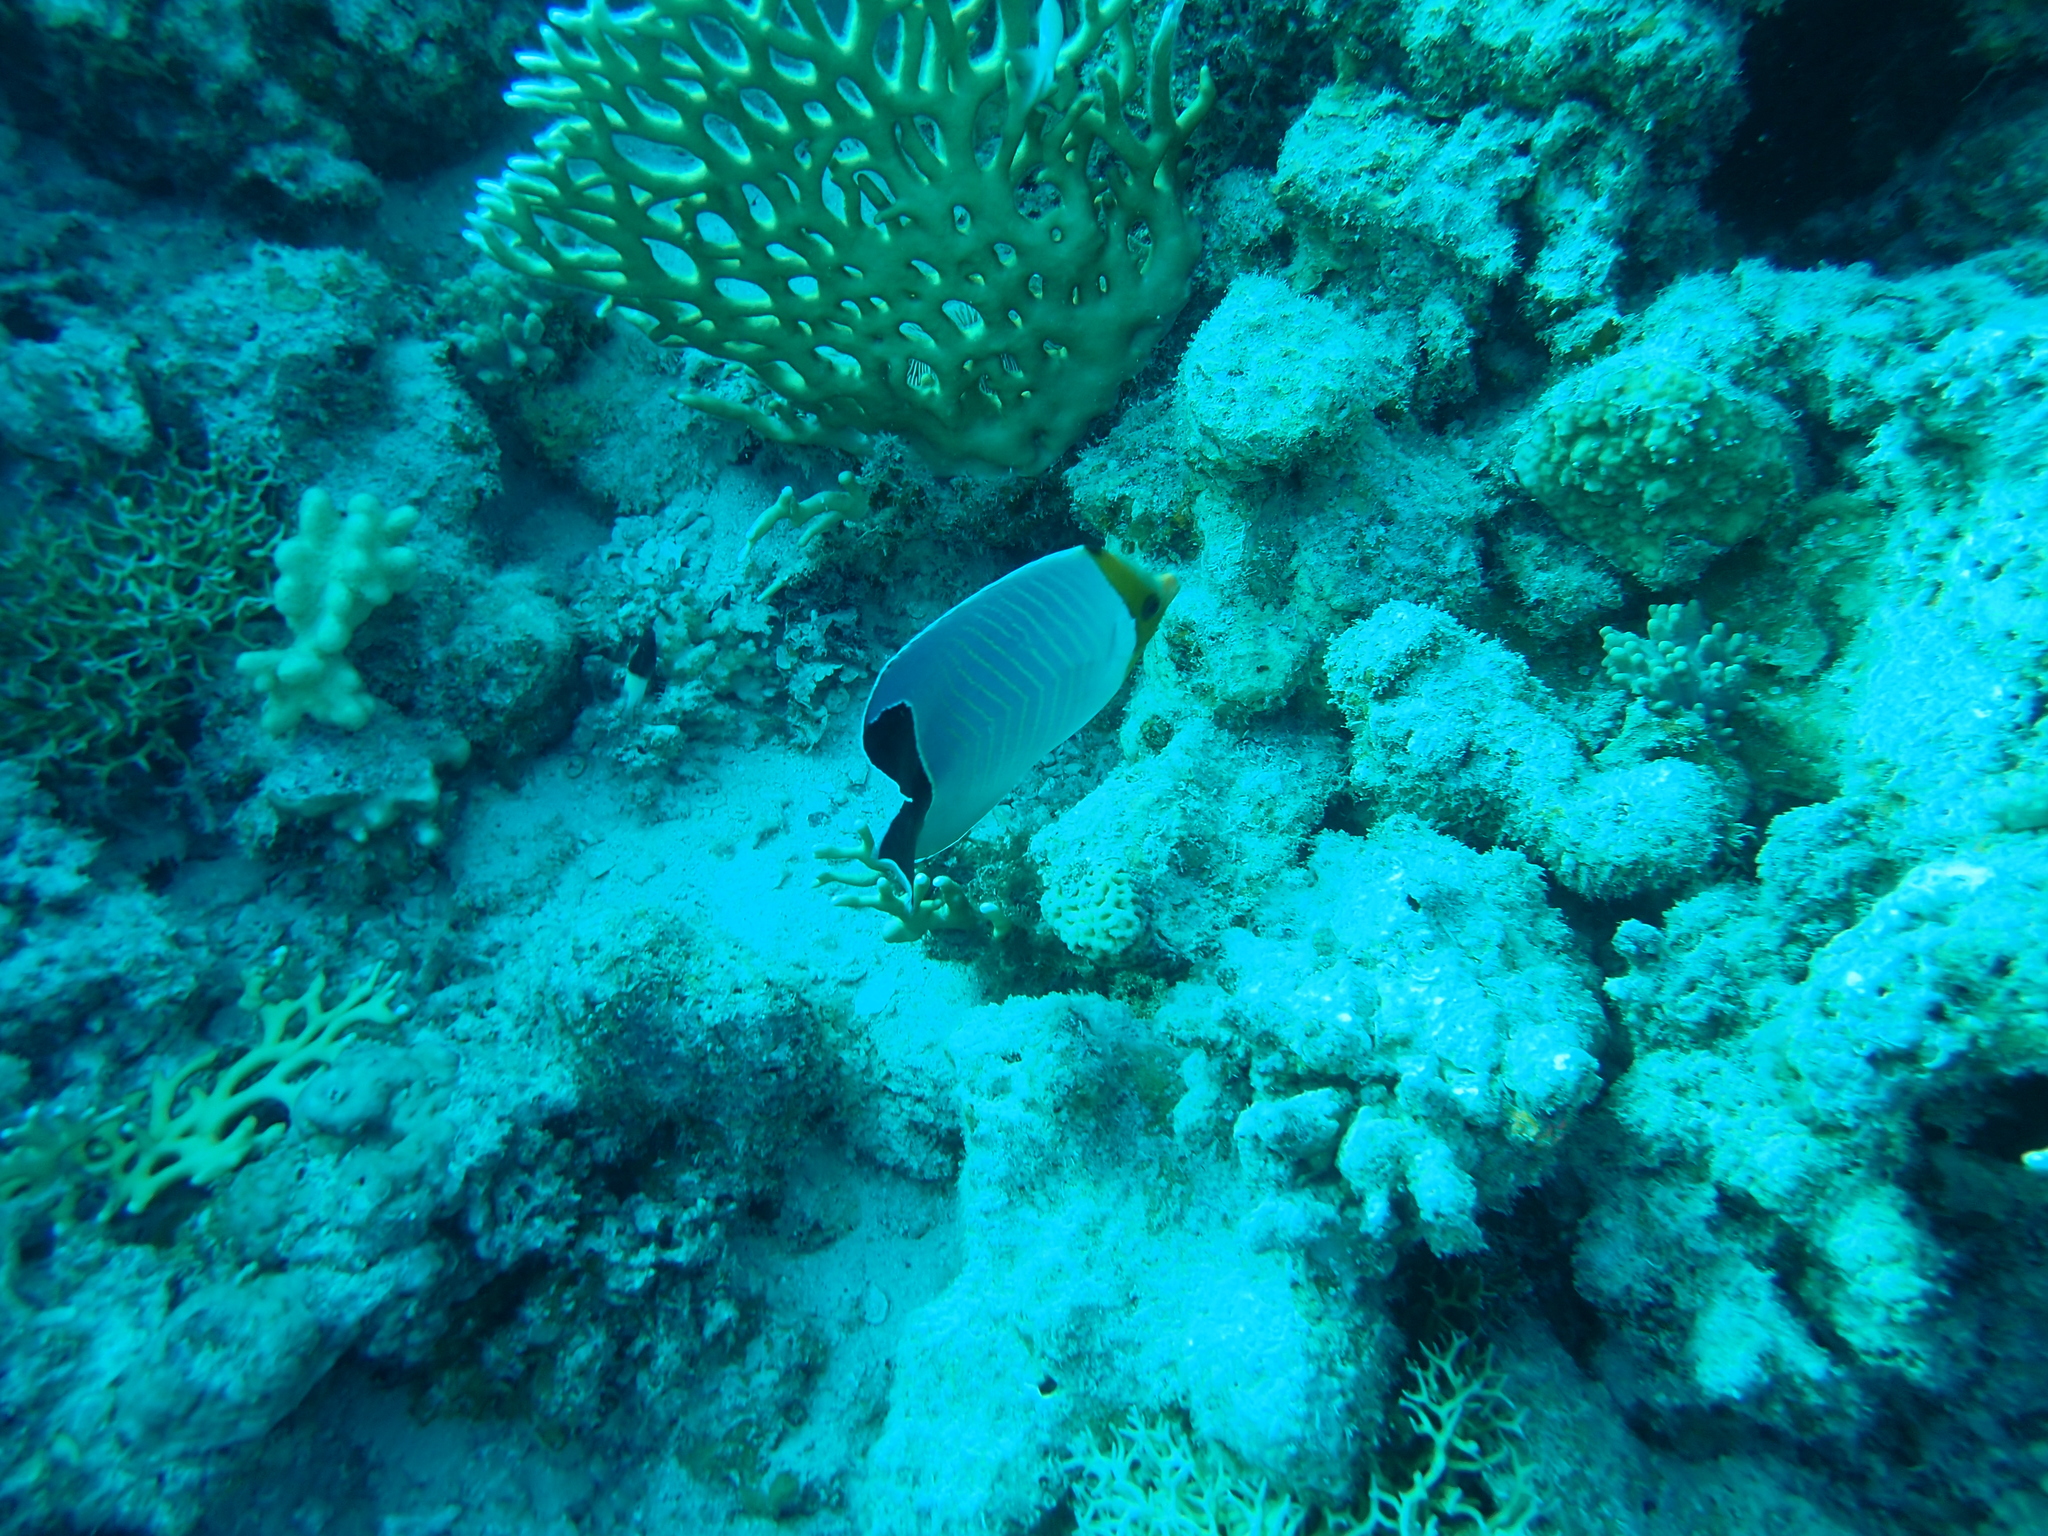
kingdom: Animalia
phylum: Chordata
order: Perciformes
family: Chaetodontidae
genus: Chaetodon
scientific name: Chaetodon larvatus
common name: Hooded butterflyfish
